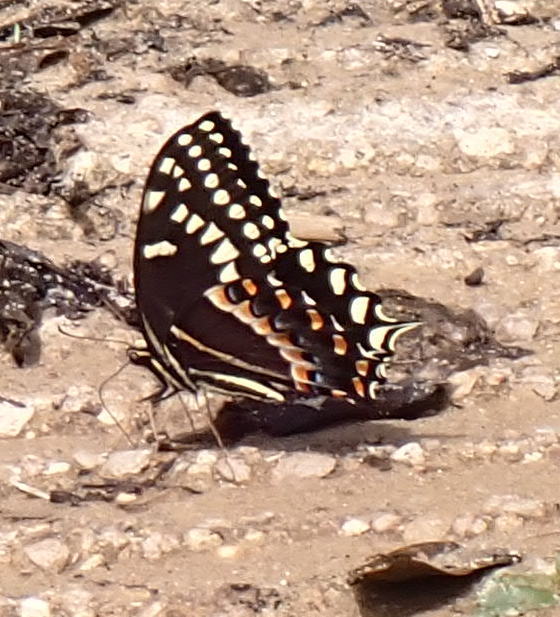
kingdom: Animalia
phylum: Arthropoda
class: Insecta
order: Lepidoptera
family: Papilionidae
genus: Papilio
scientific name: Papilio palamedes
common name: Palamedes swallowtail
